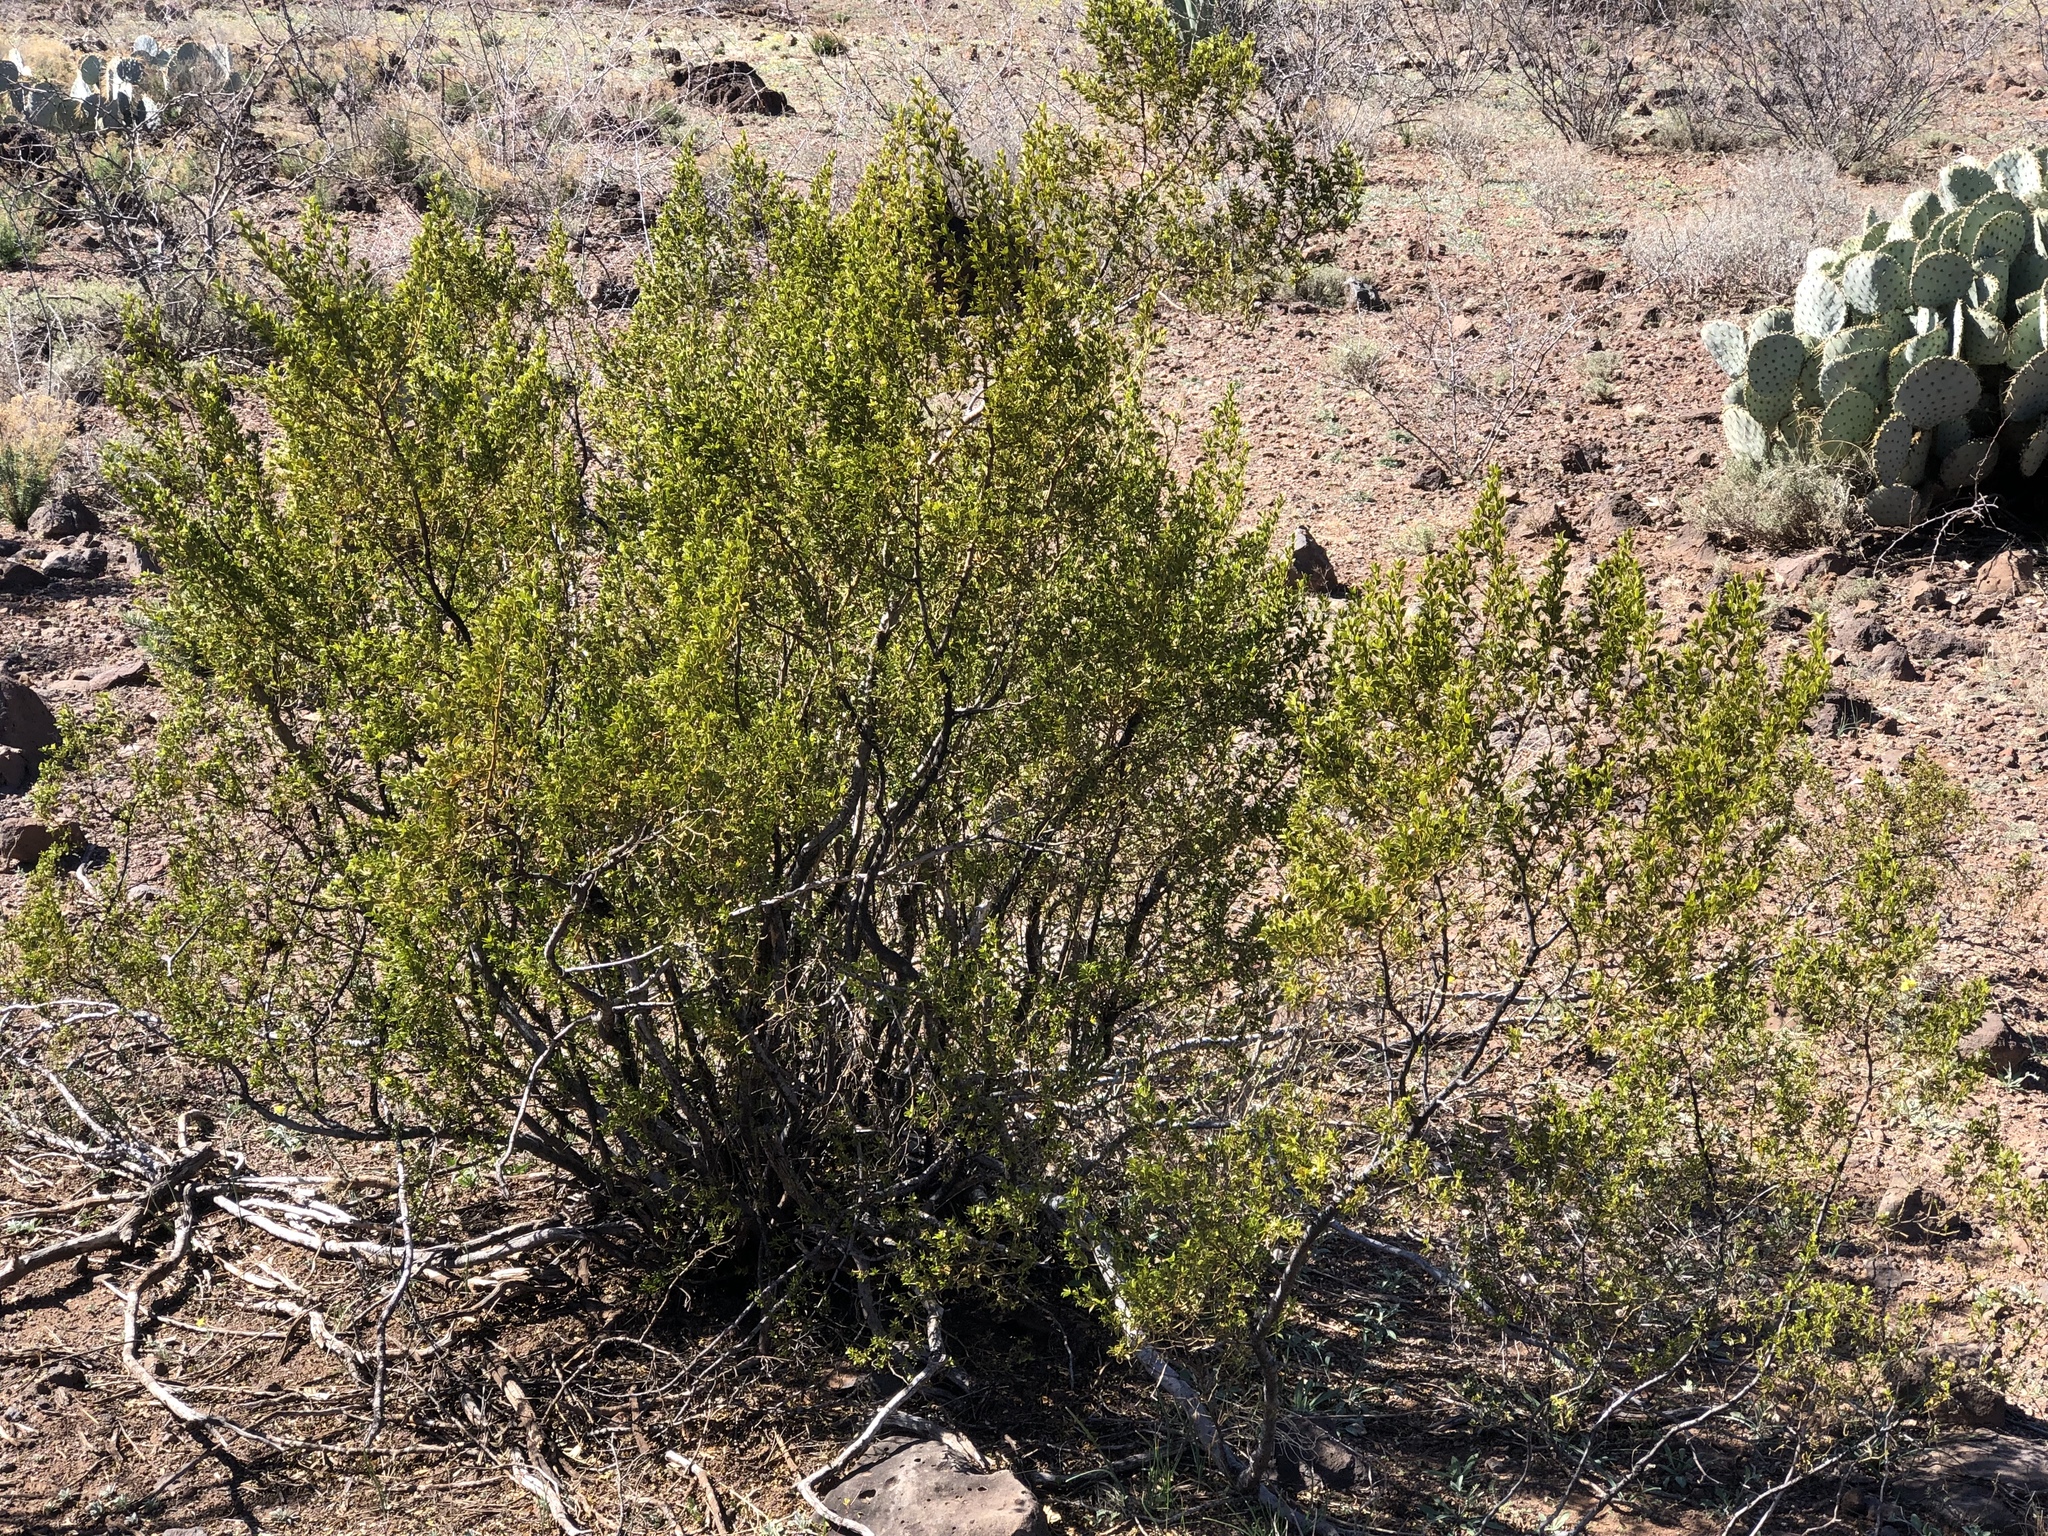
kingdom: Plantae
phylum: Tracheophyta
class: Magnoliopsida
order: Zygophyllales
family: Zygophyllaceae
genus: Larrea
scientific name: Larrea tridentata
